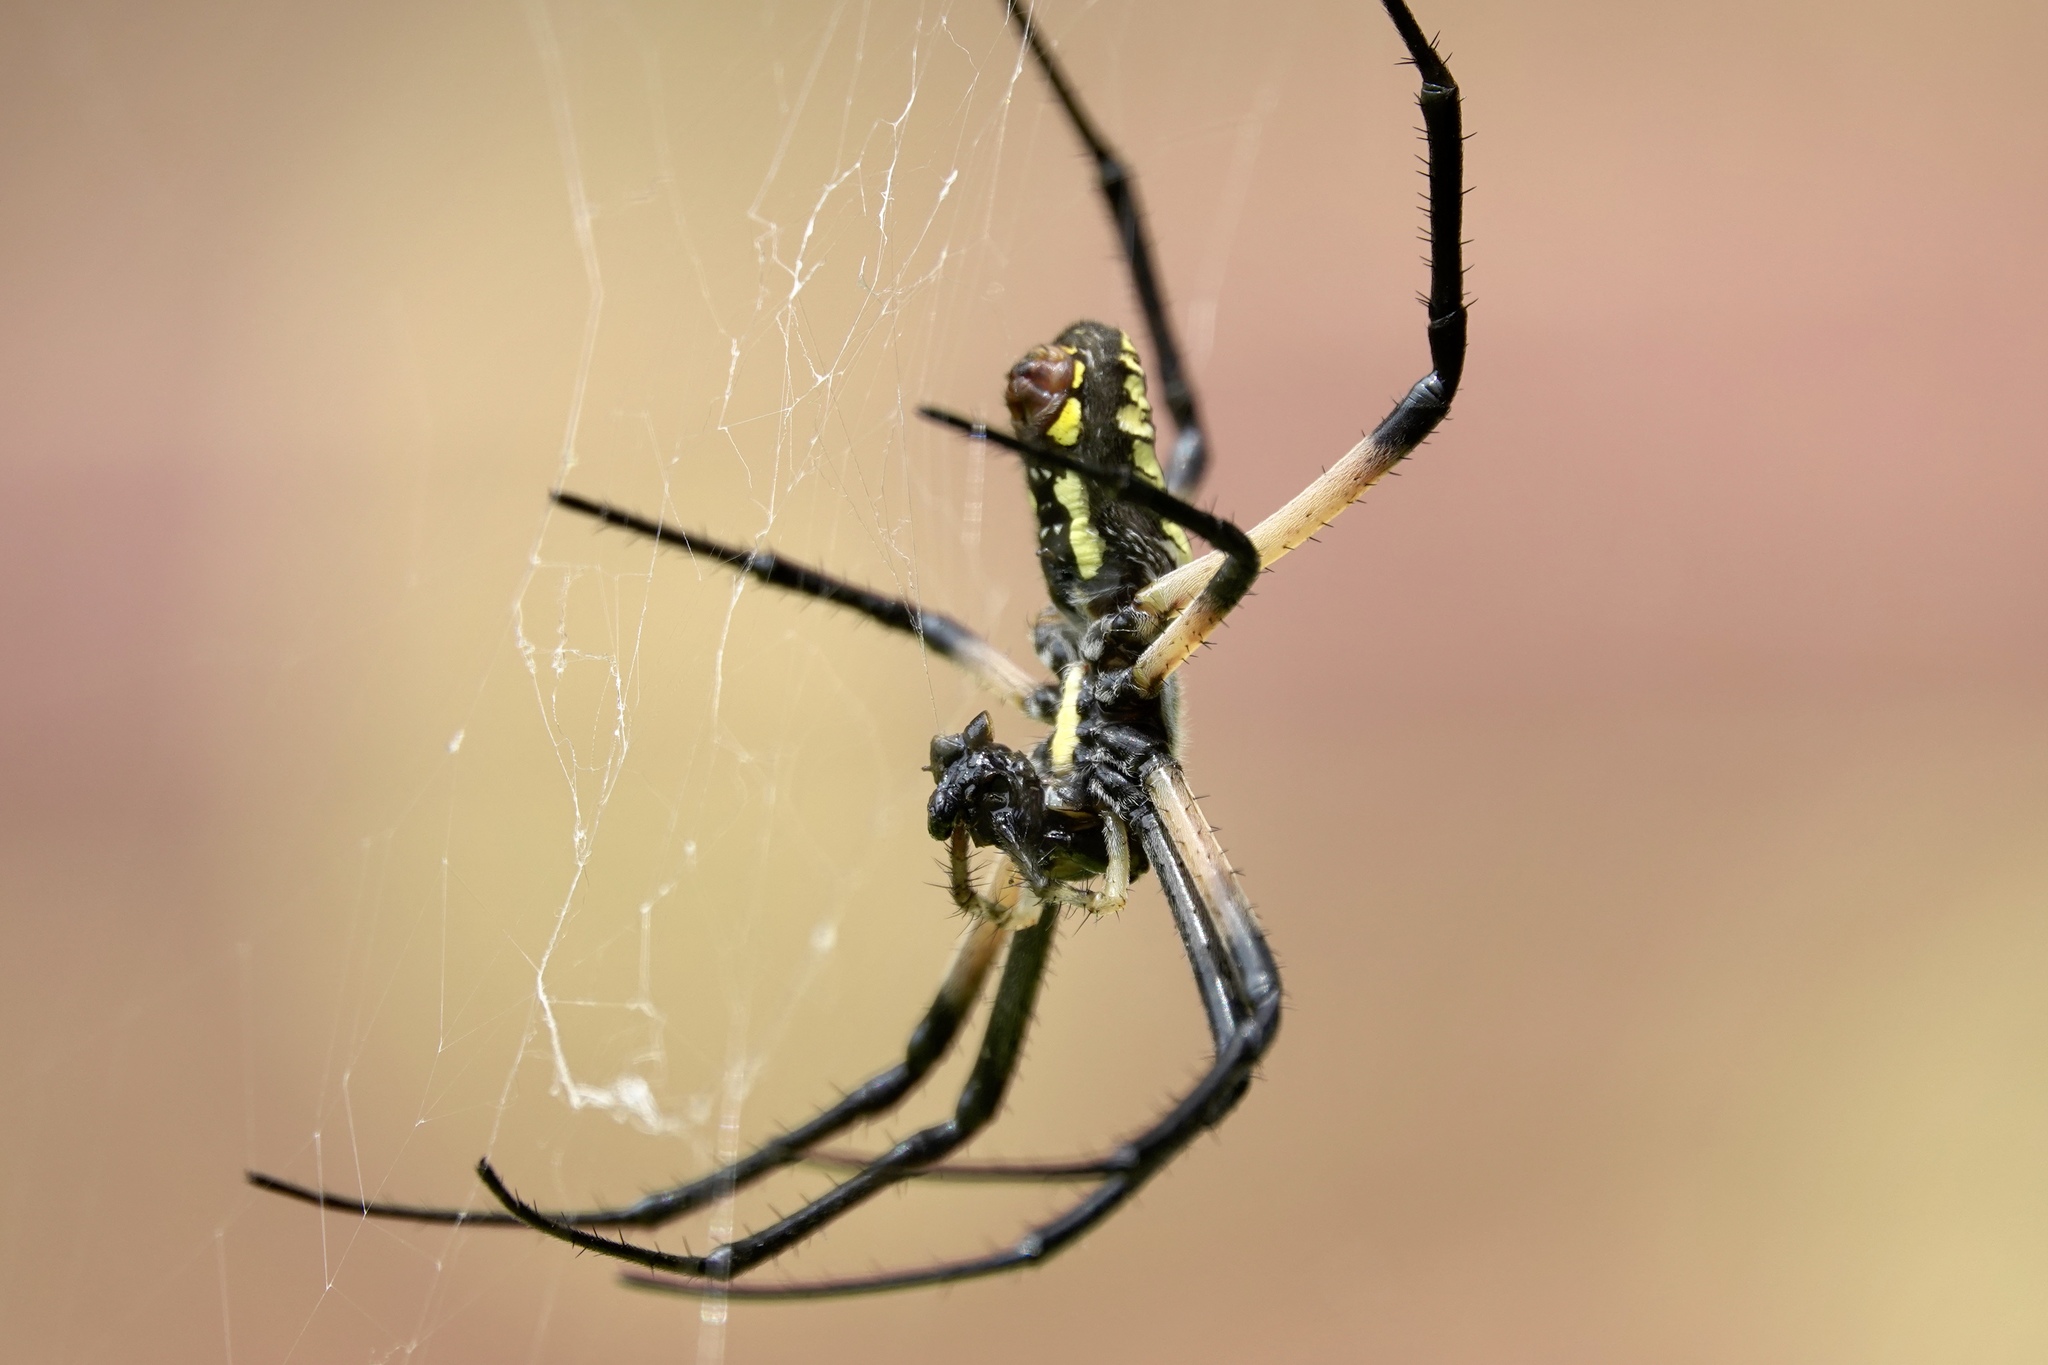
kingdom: Animalia
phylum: Arthropoda
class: Arachnida
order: Araneae
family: Araneidae
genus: Argiope
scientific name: Argiope aurantia
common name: Orb weavers
